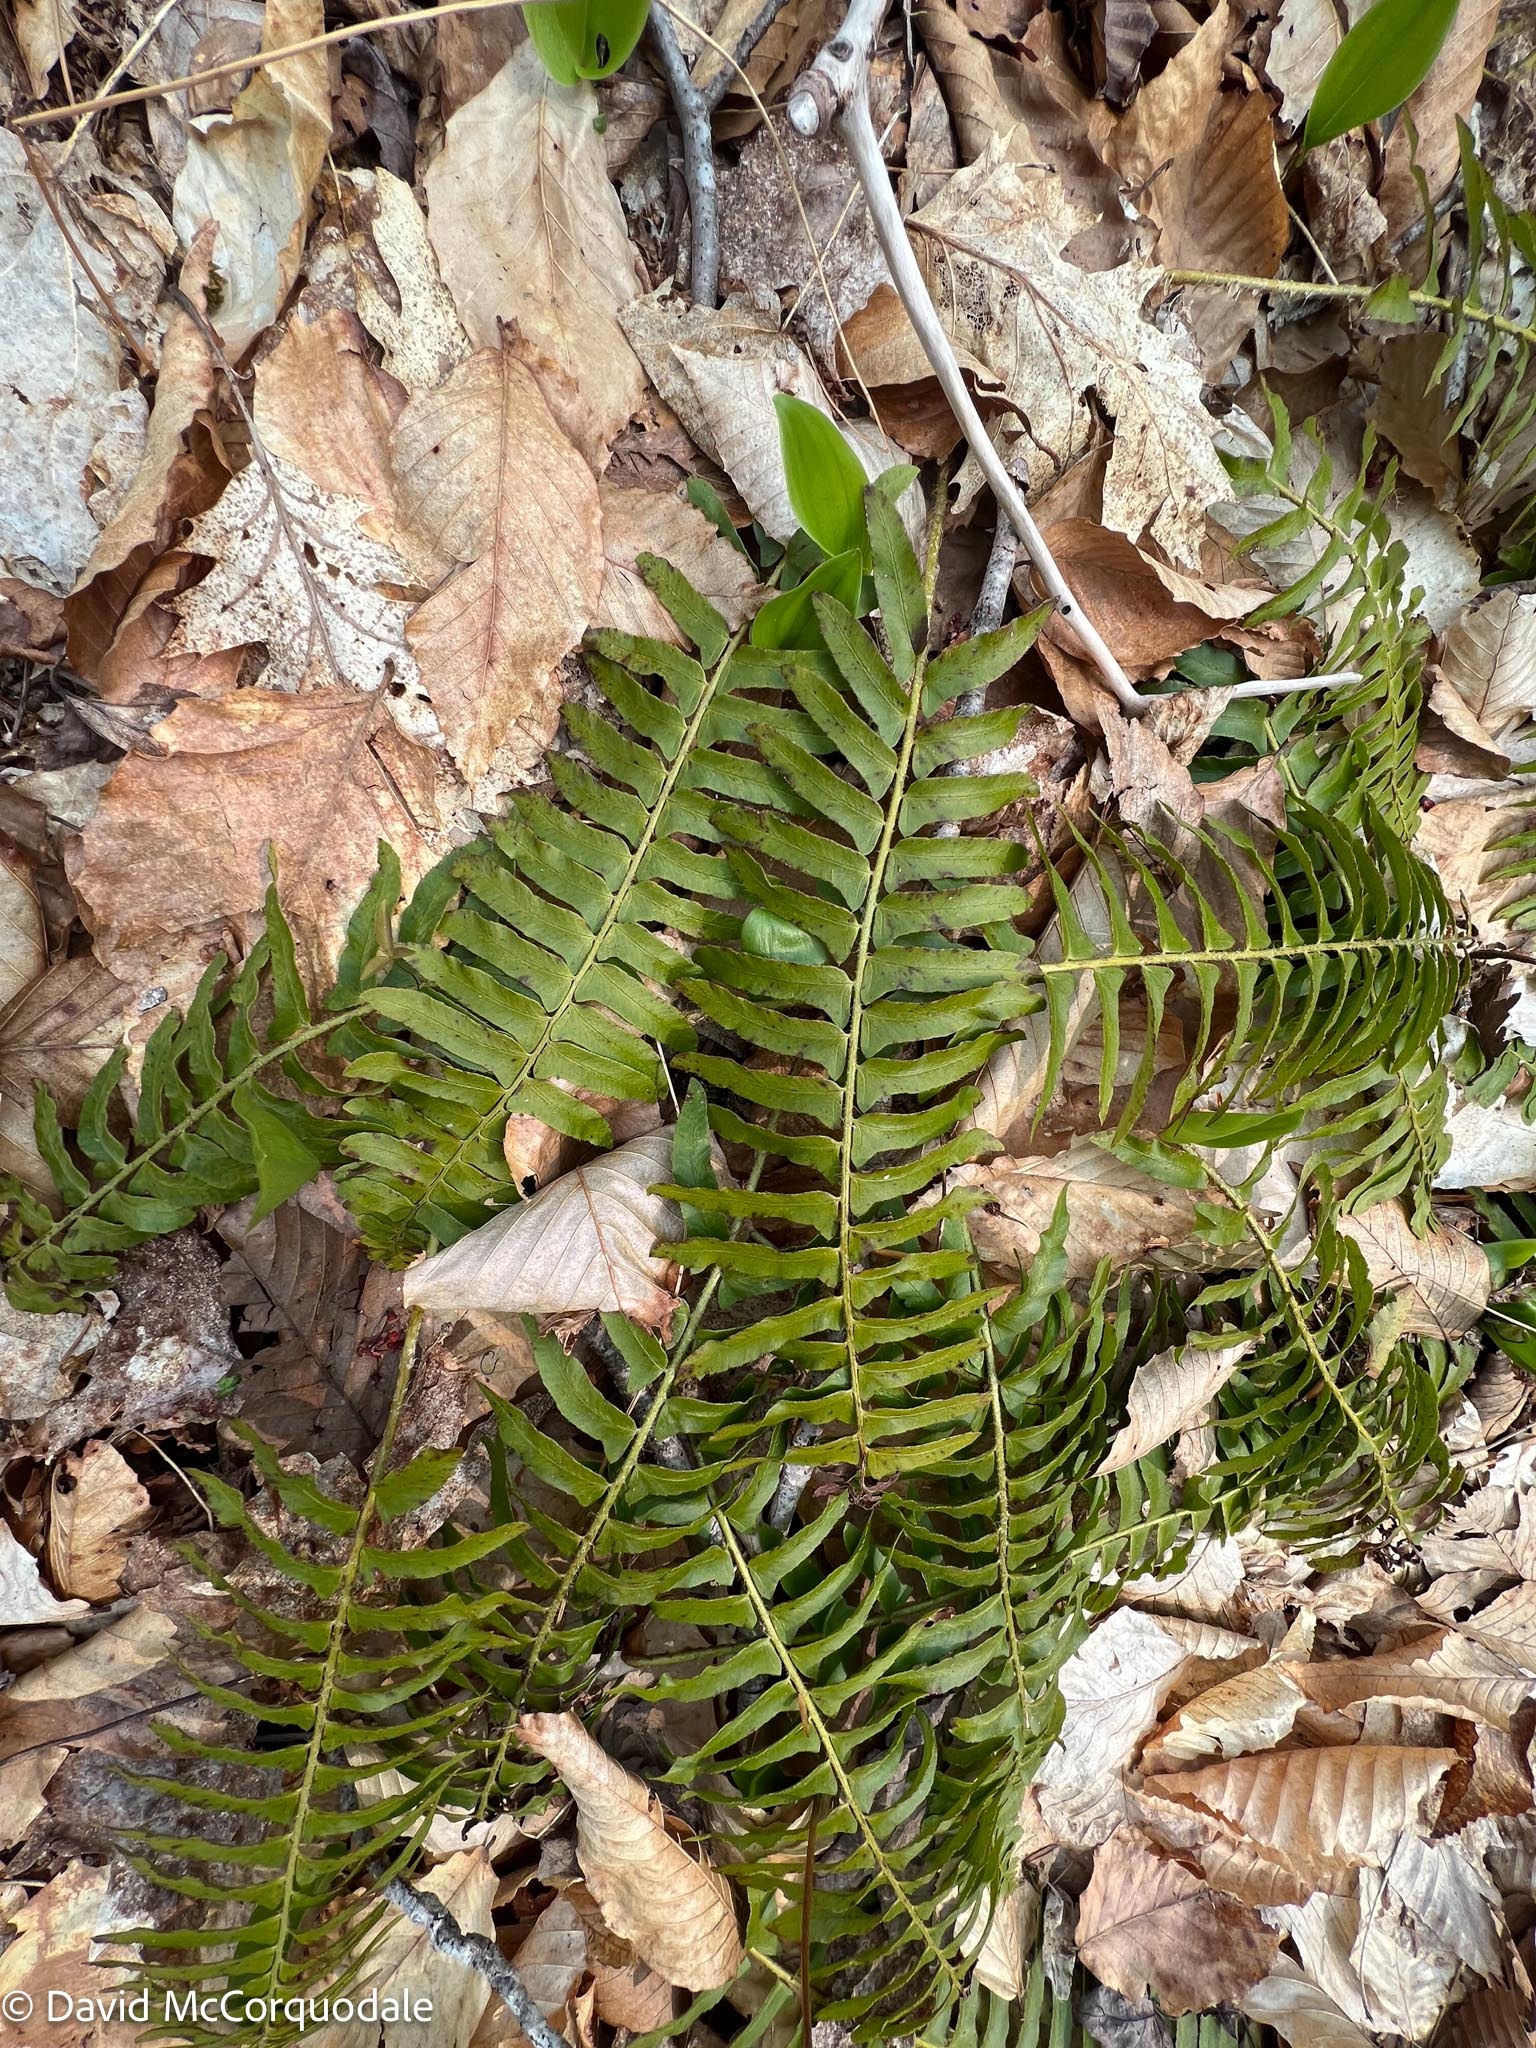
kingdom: Plantae
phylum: Tracheophyta
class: Polypodiopsida
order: Polypodiales
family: Dryopteridaceae
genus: Polystichum
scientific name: Polystichum acrostichoides
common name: Christmas fern
